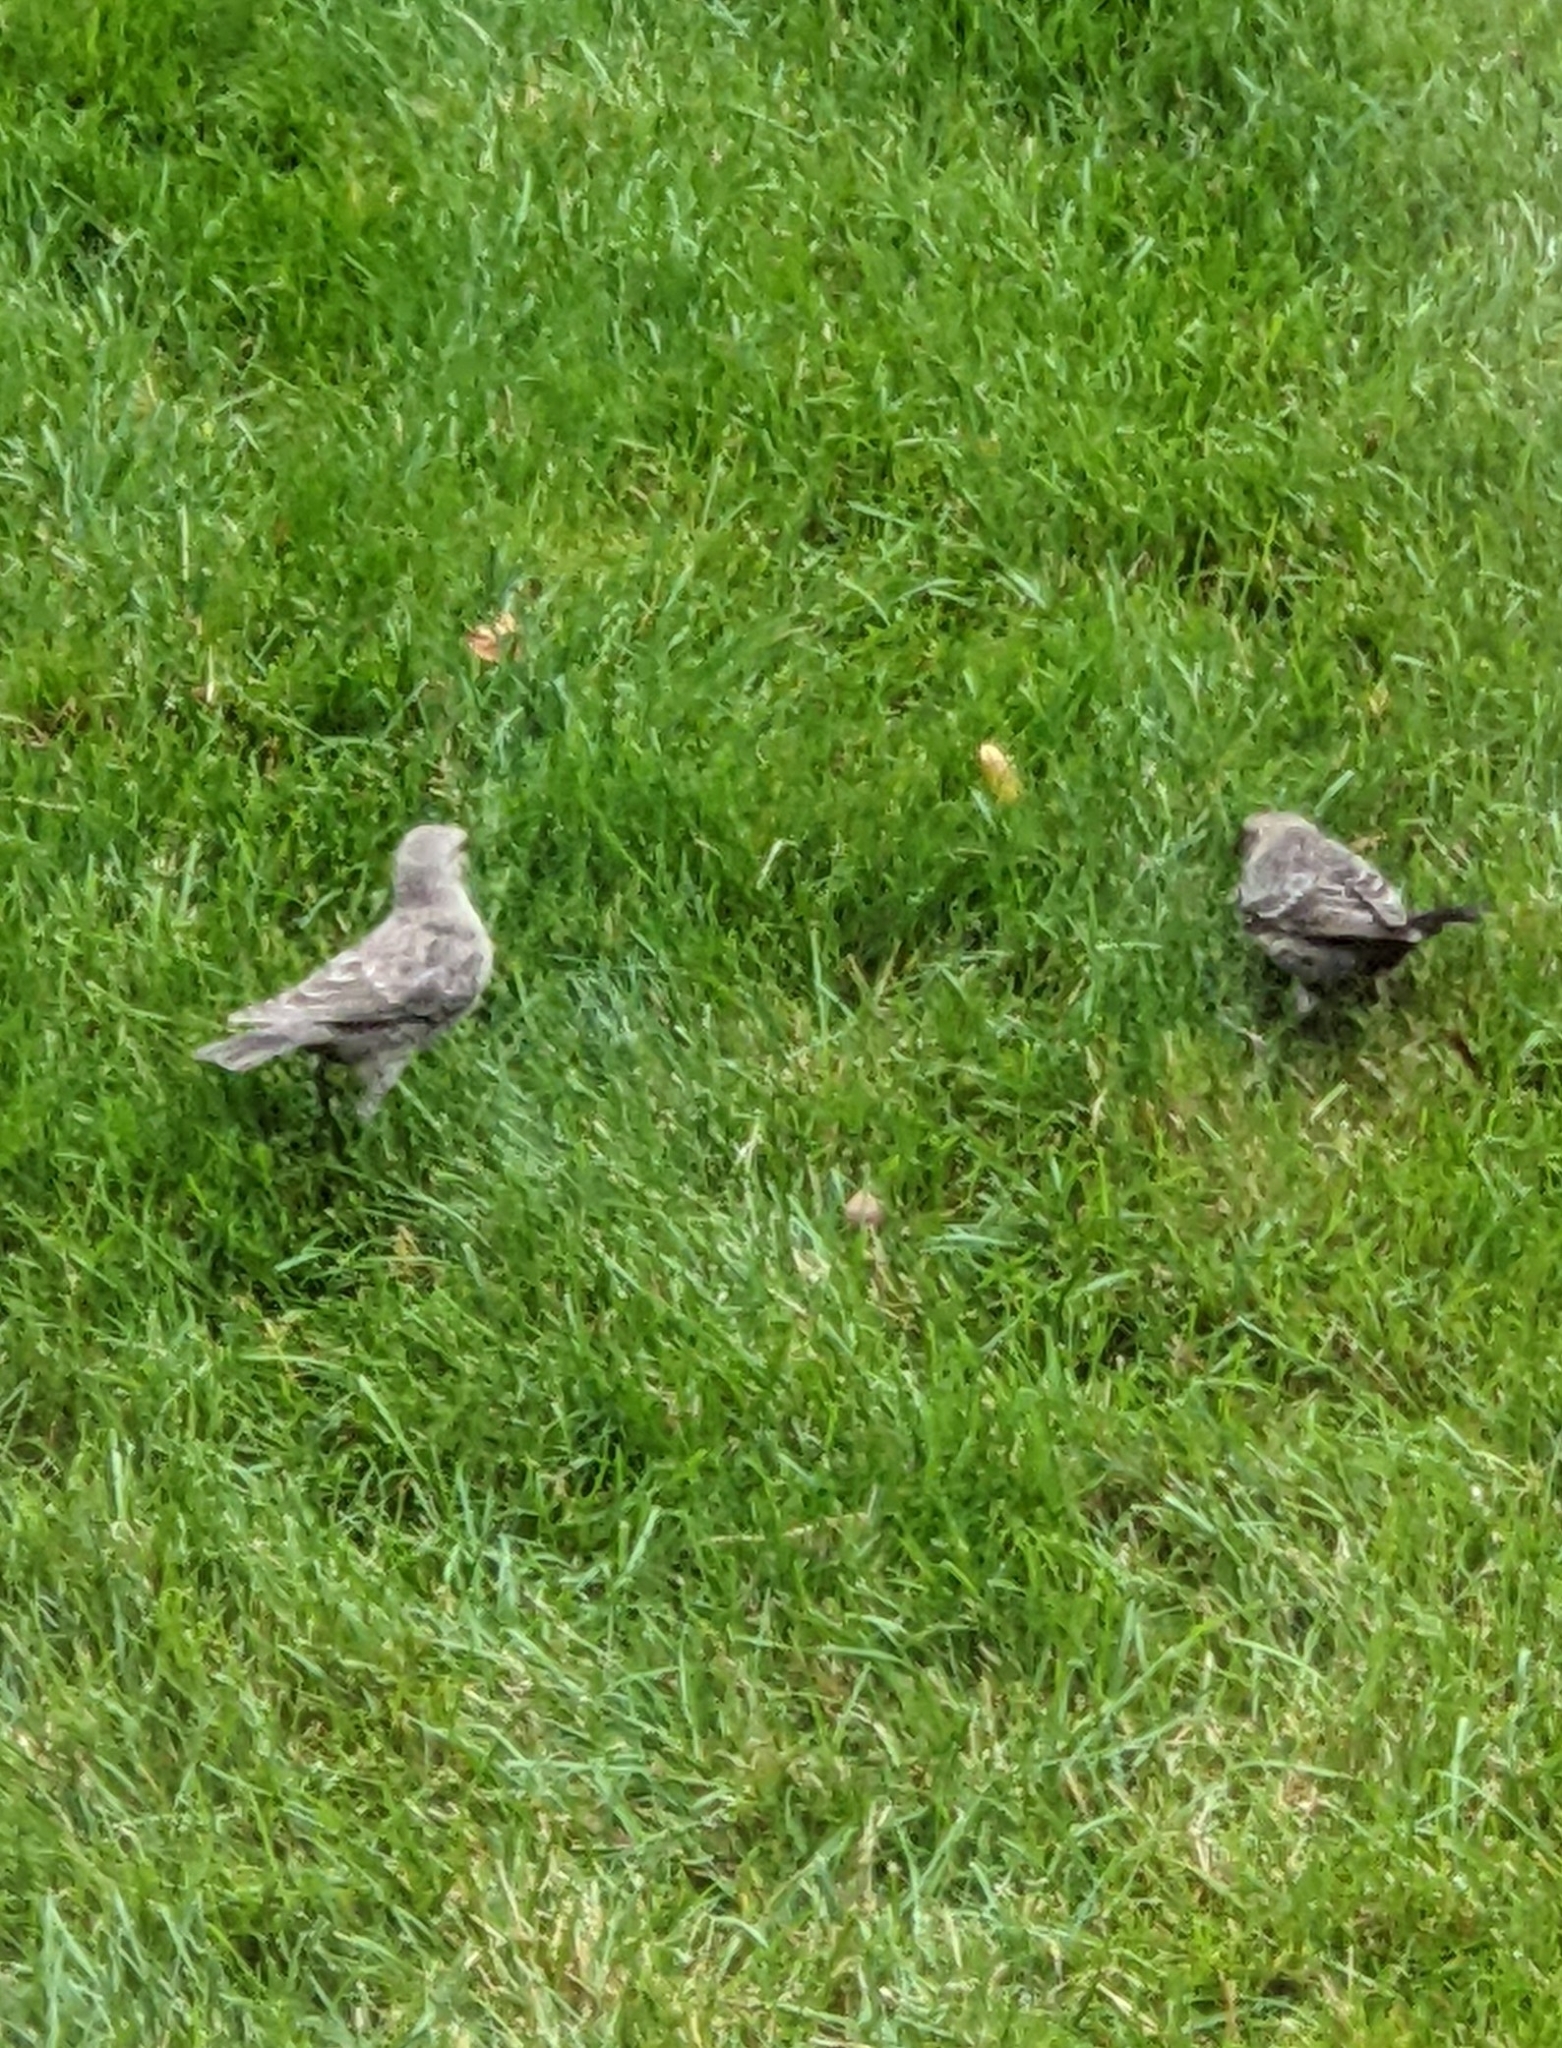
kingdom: Animalia
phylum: Chordata
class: Aves
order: Passeriformes
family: Icteridae
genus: Molothrus
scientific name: Molothrus ater
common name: Brown-headed cowbird
